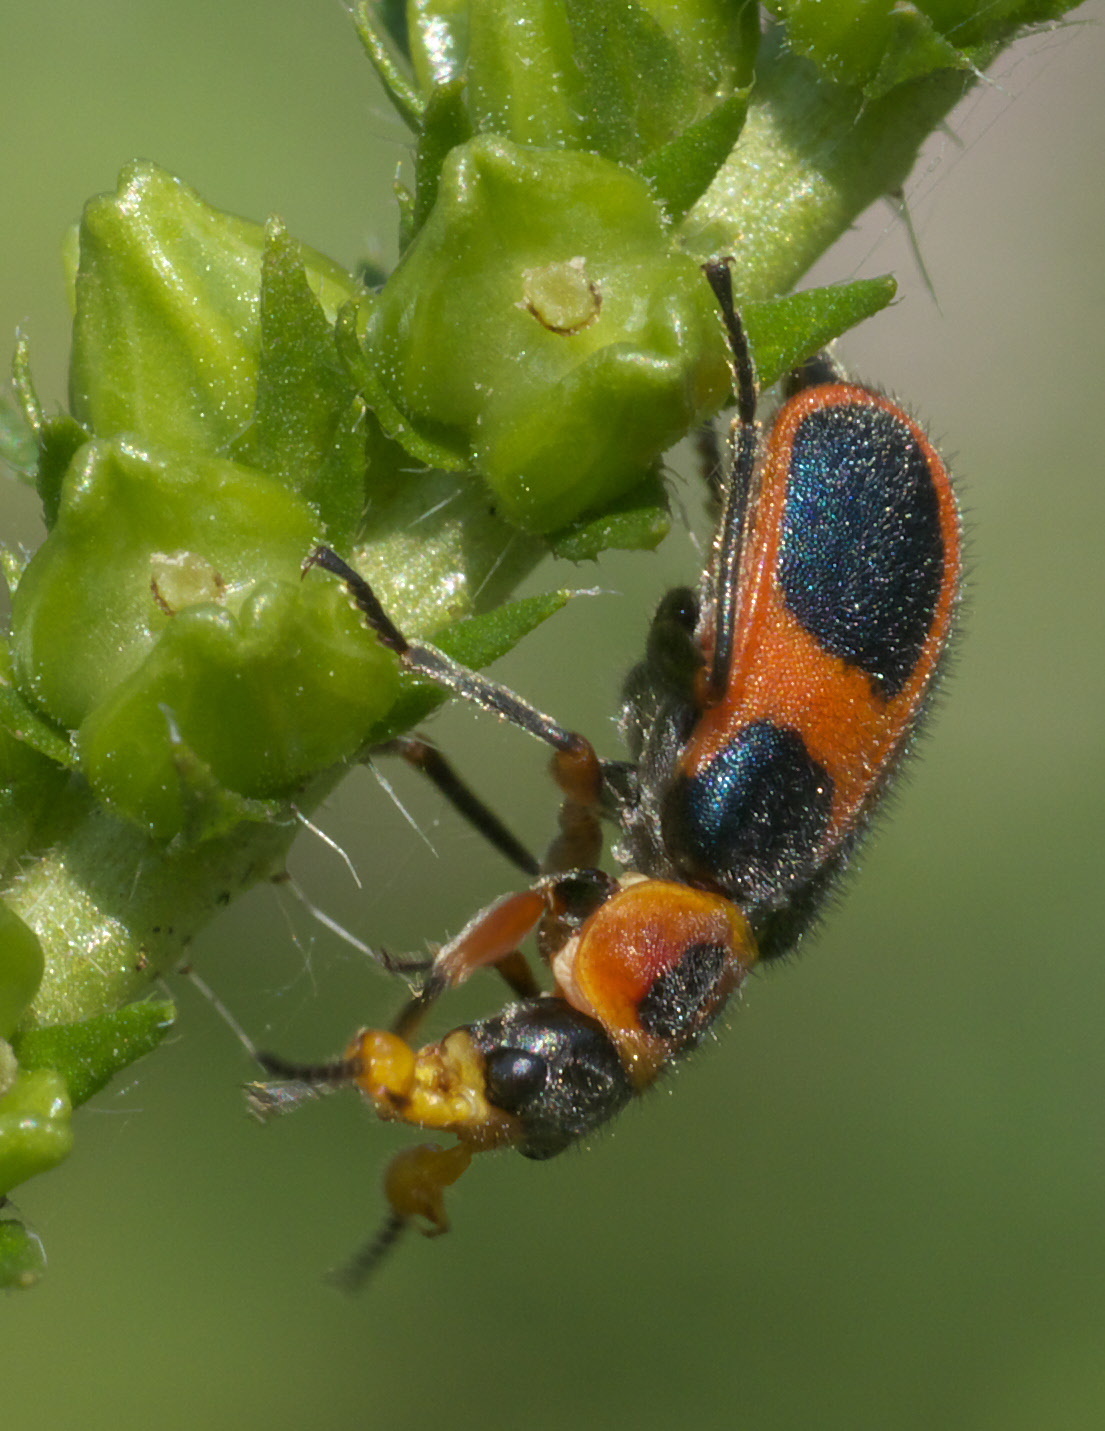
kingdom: Animalia
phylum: Arthropoda
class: Insecta
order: Coleoptera
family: Melyridae
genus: Collops
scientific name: Collops
